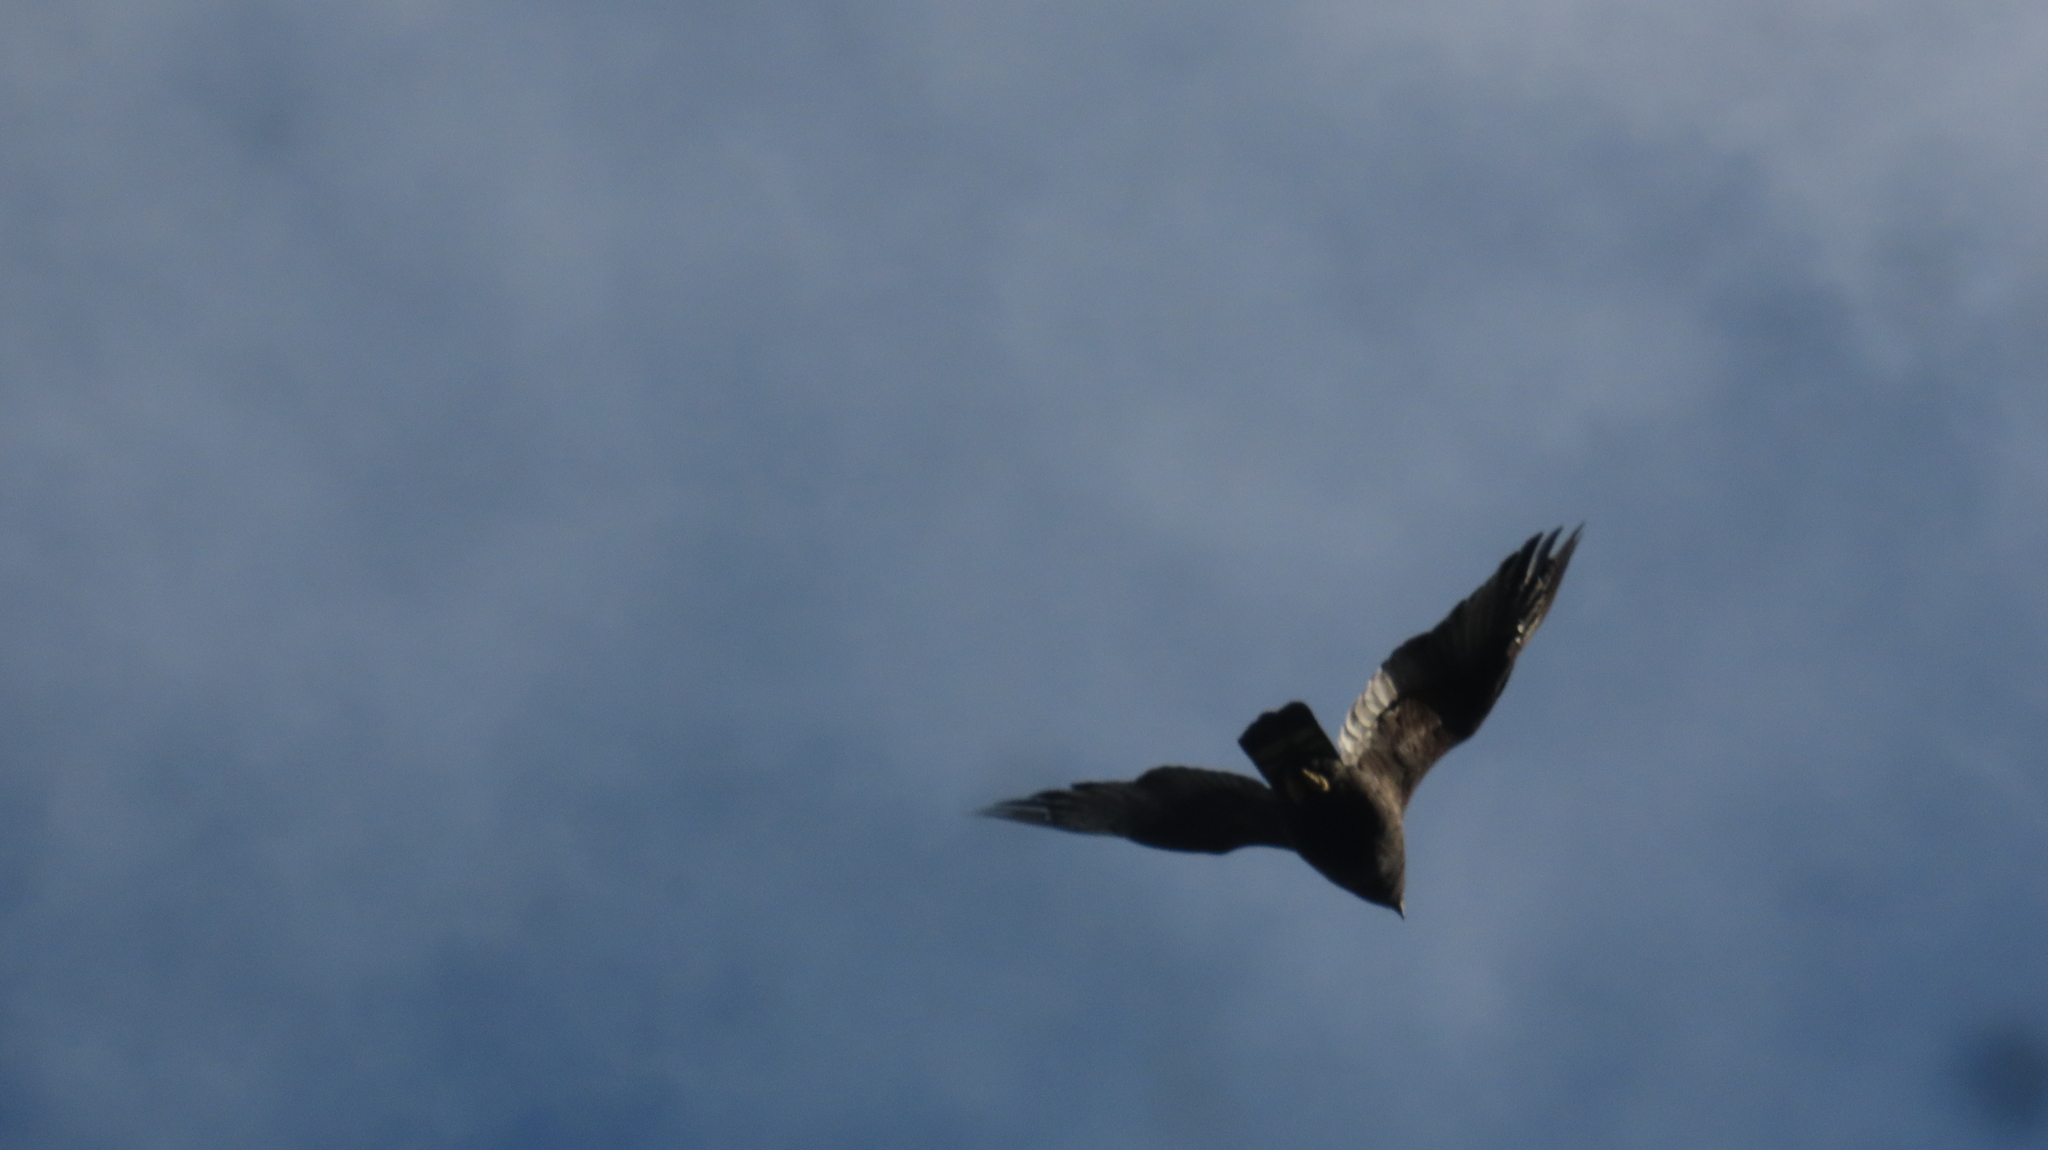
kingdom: Animalia
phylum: Chordata
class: Aves
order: Accipitriformes
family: Accipitridae
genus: Buteo
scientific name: Buteo albonotatus
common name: Zone-tailed hawk
